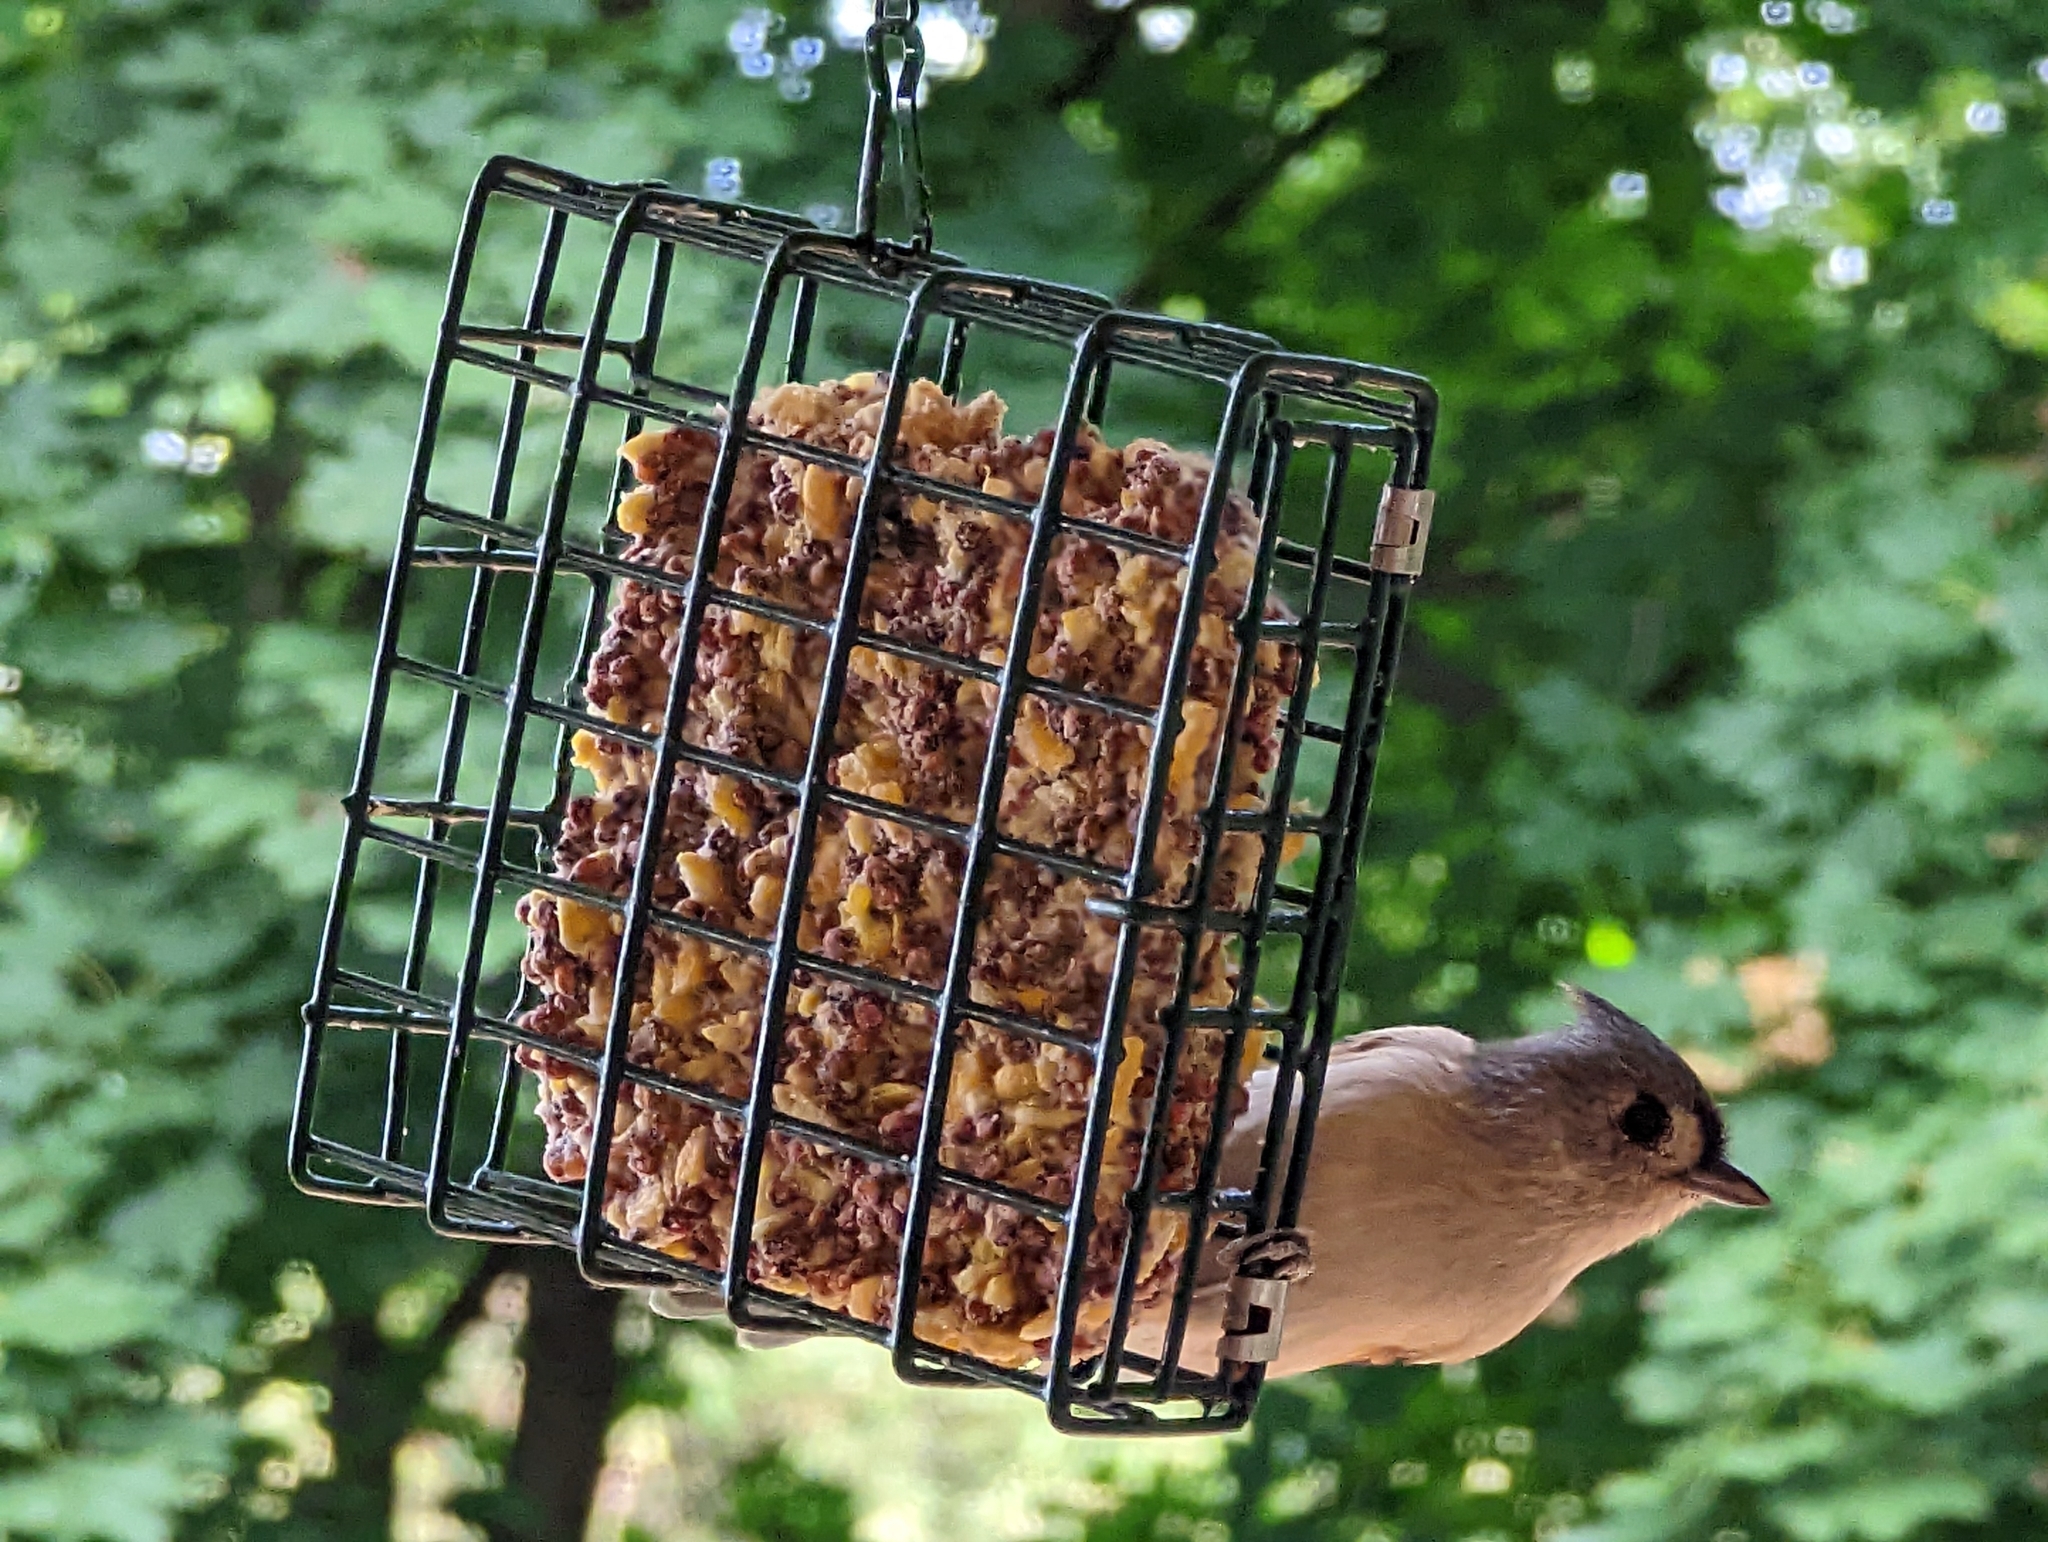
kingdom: Animalia
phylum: Chordata
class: Aves
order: Passeriformes
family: Paridae
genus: Baeolophus
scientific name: Baeolophus bicolor
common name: Tufted titmouse
